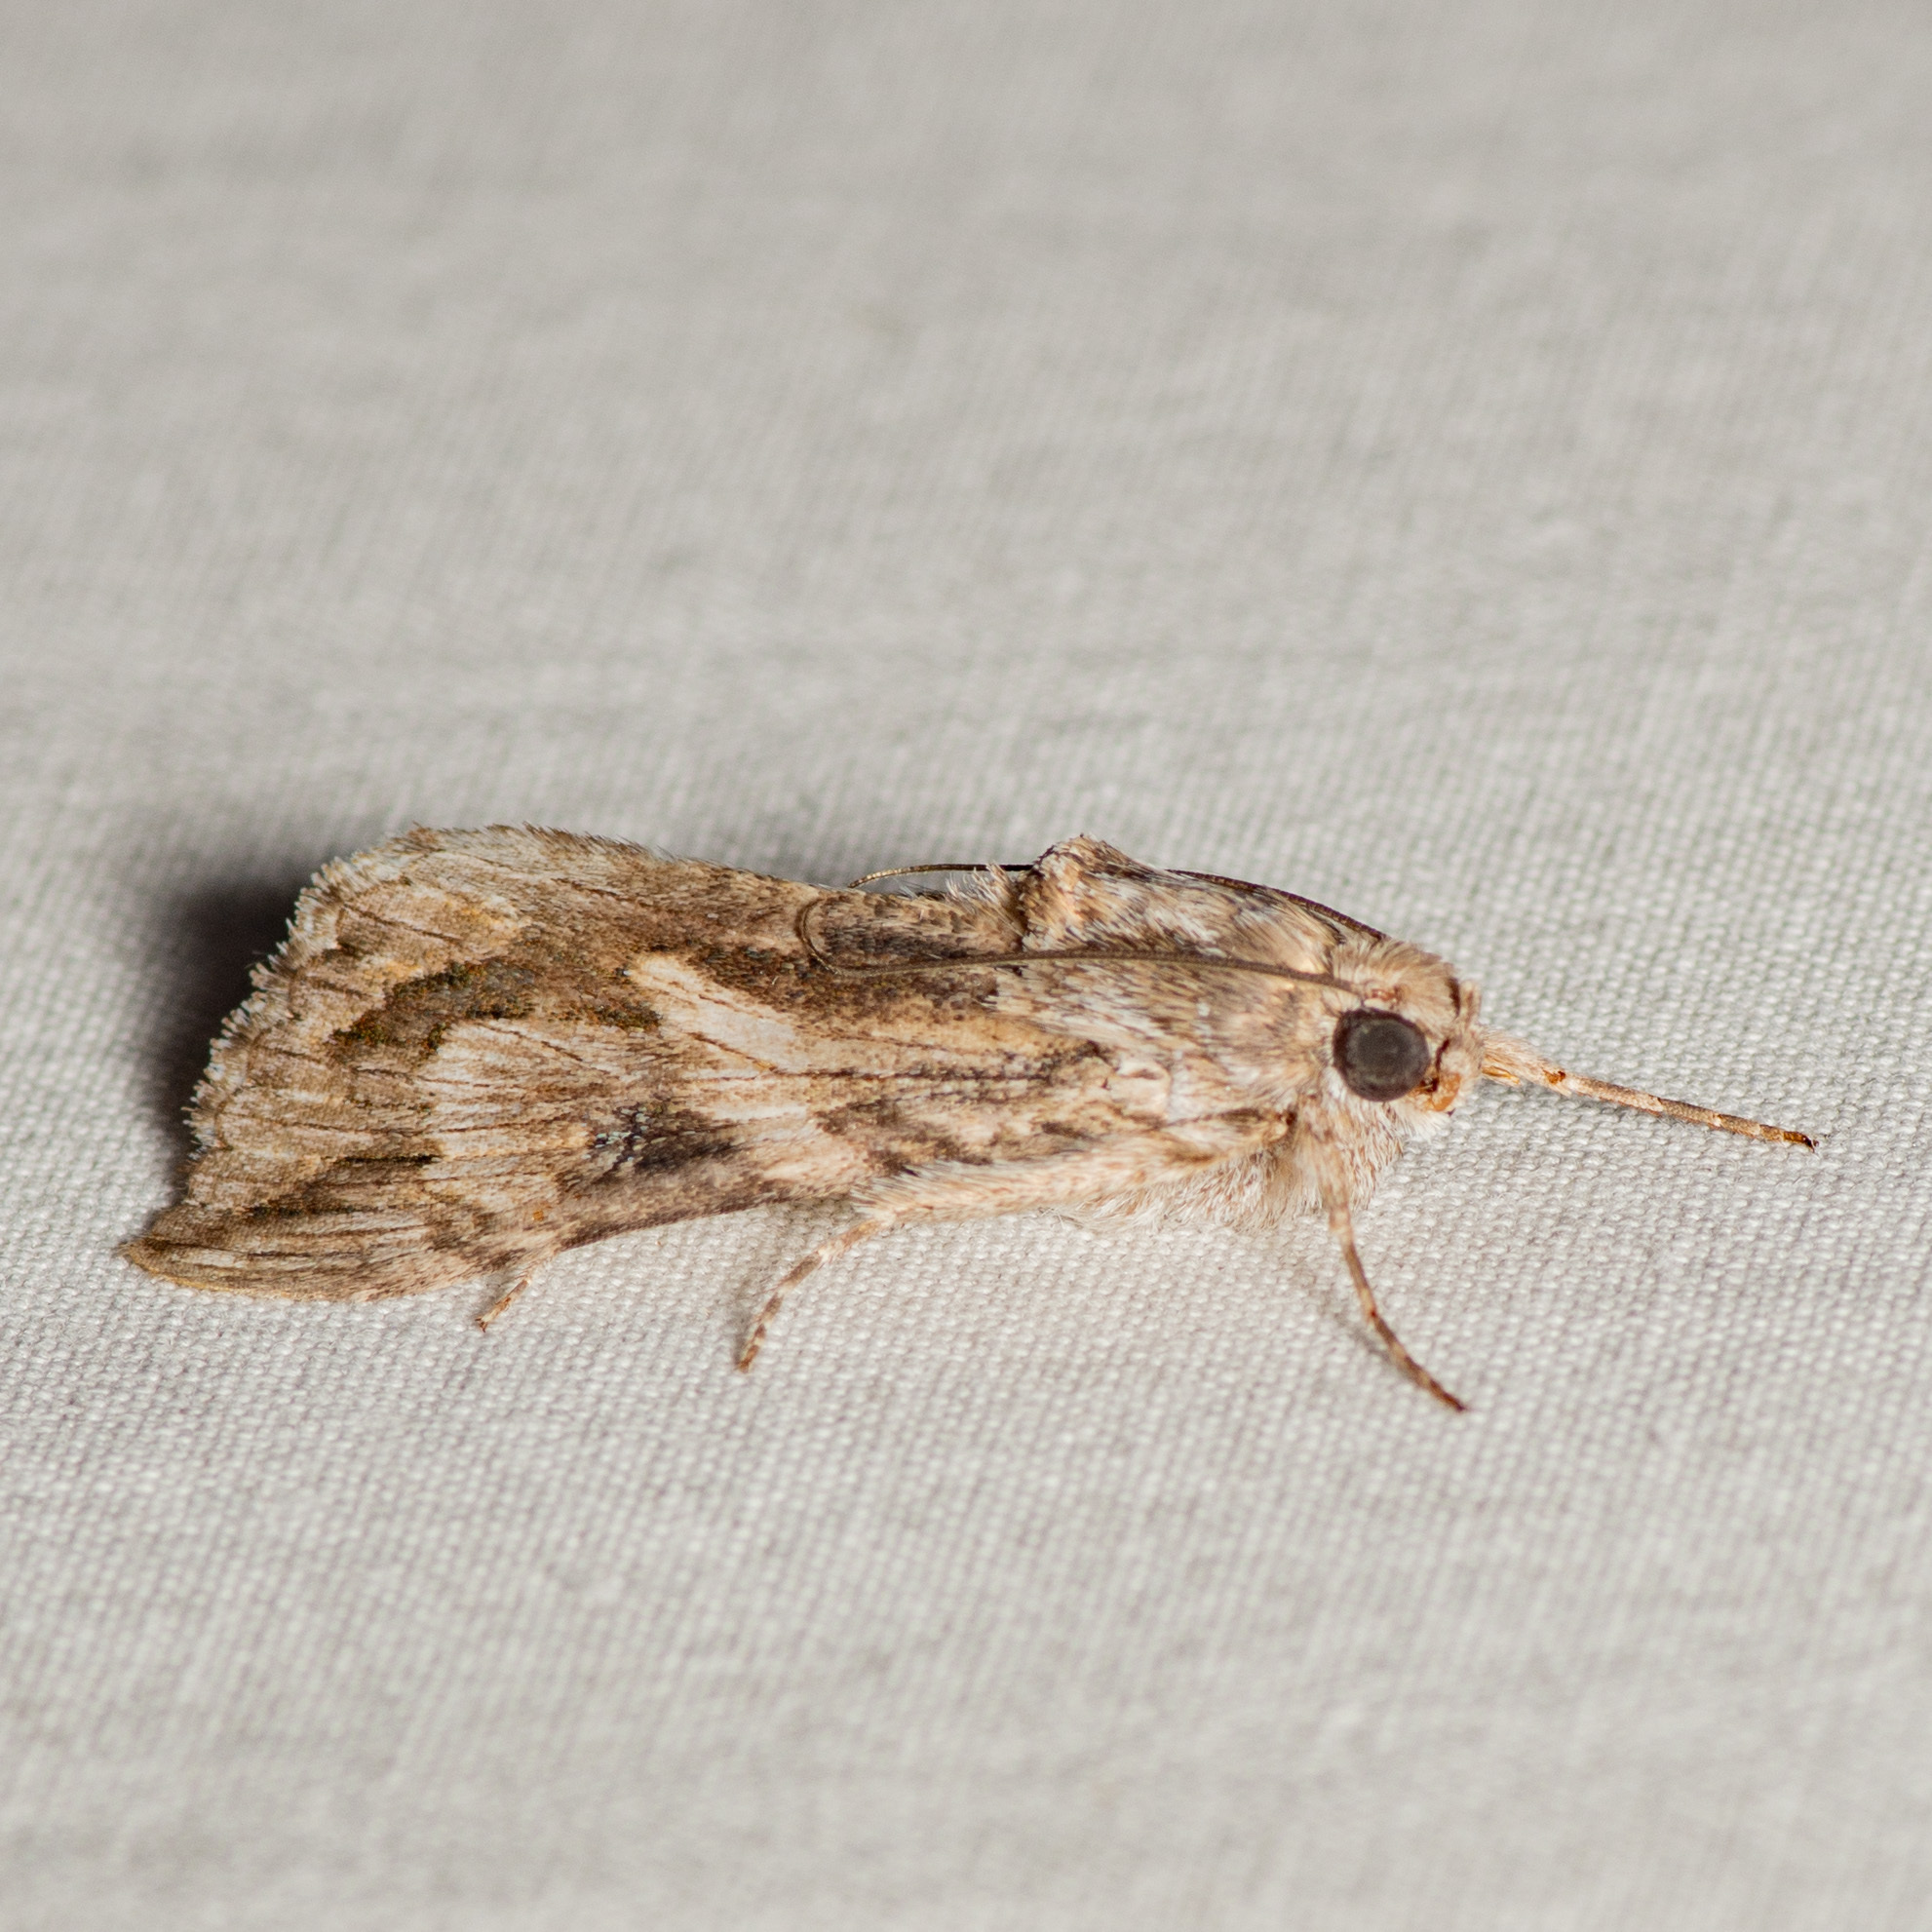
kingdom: Animalia
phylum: Arthropoda
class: Insecta
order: Lepidoptera
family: Erebidae
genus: Melipotis
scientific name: Melipotis jucunda
